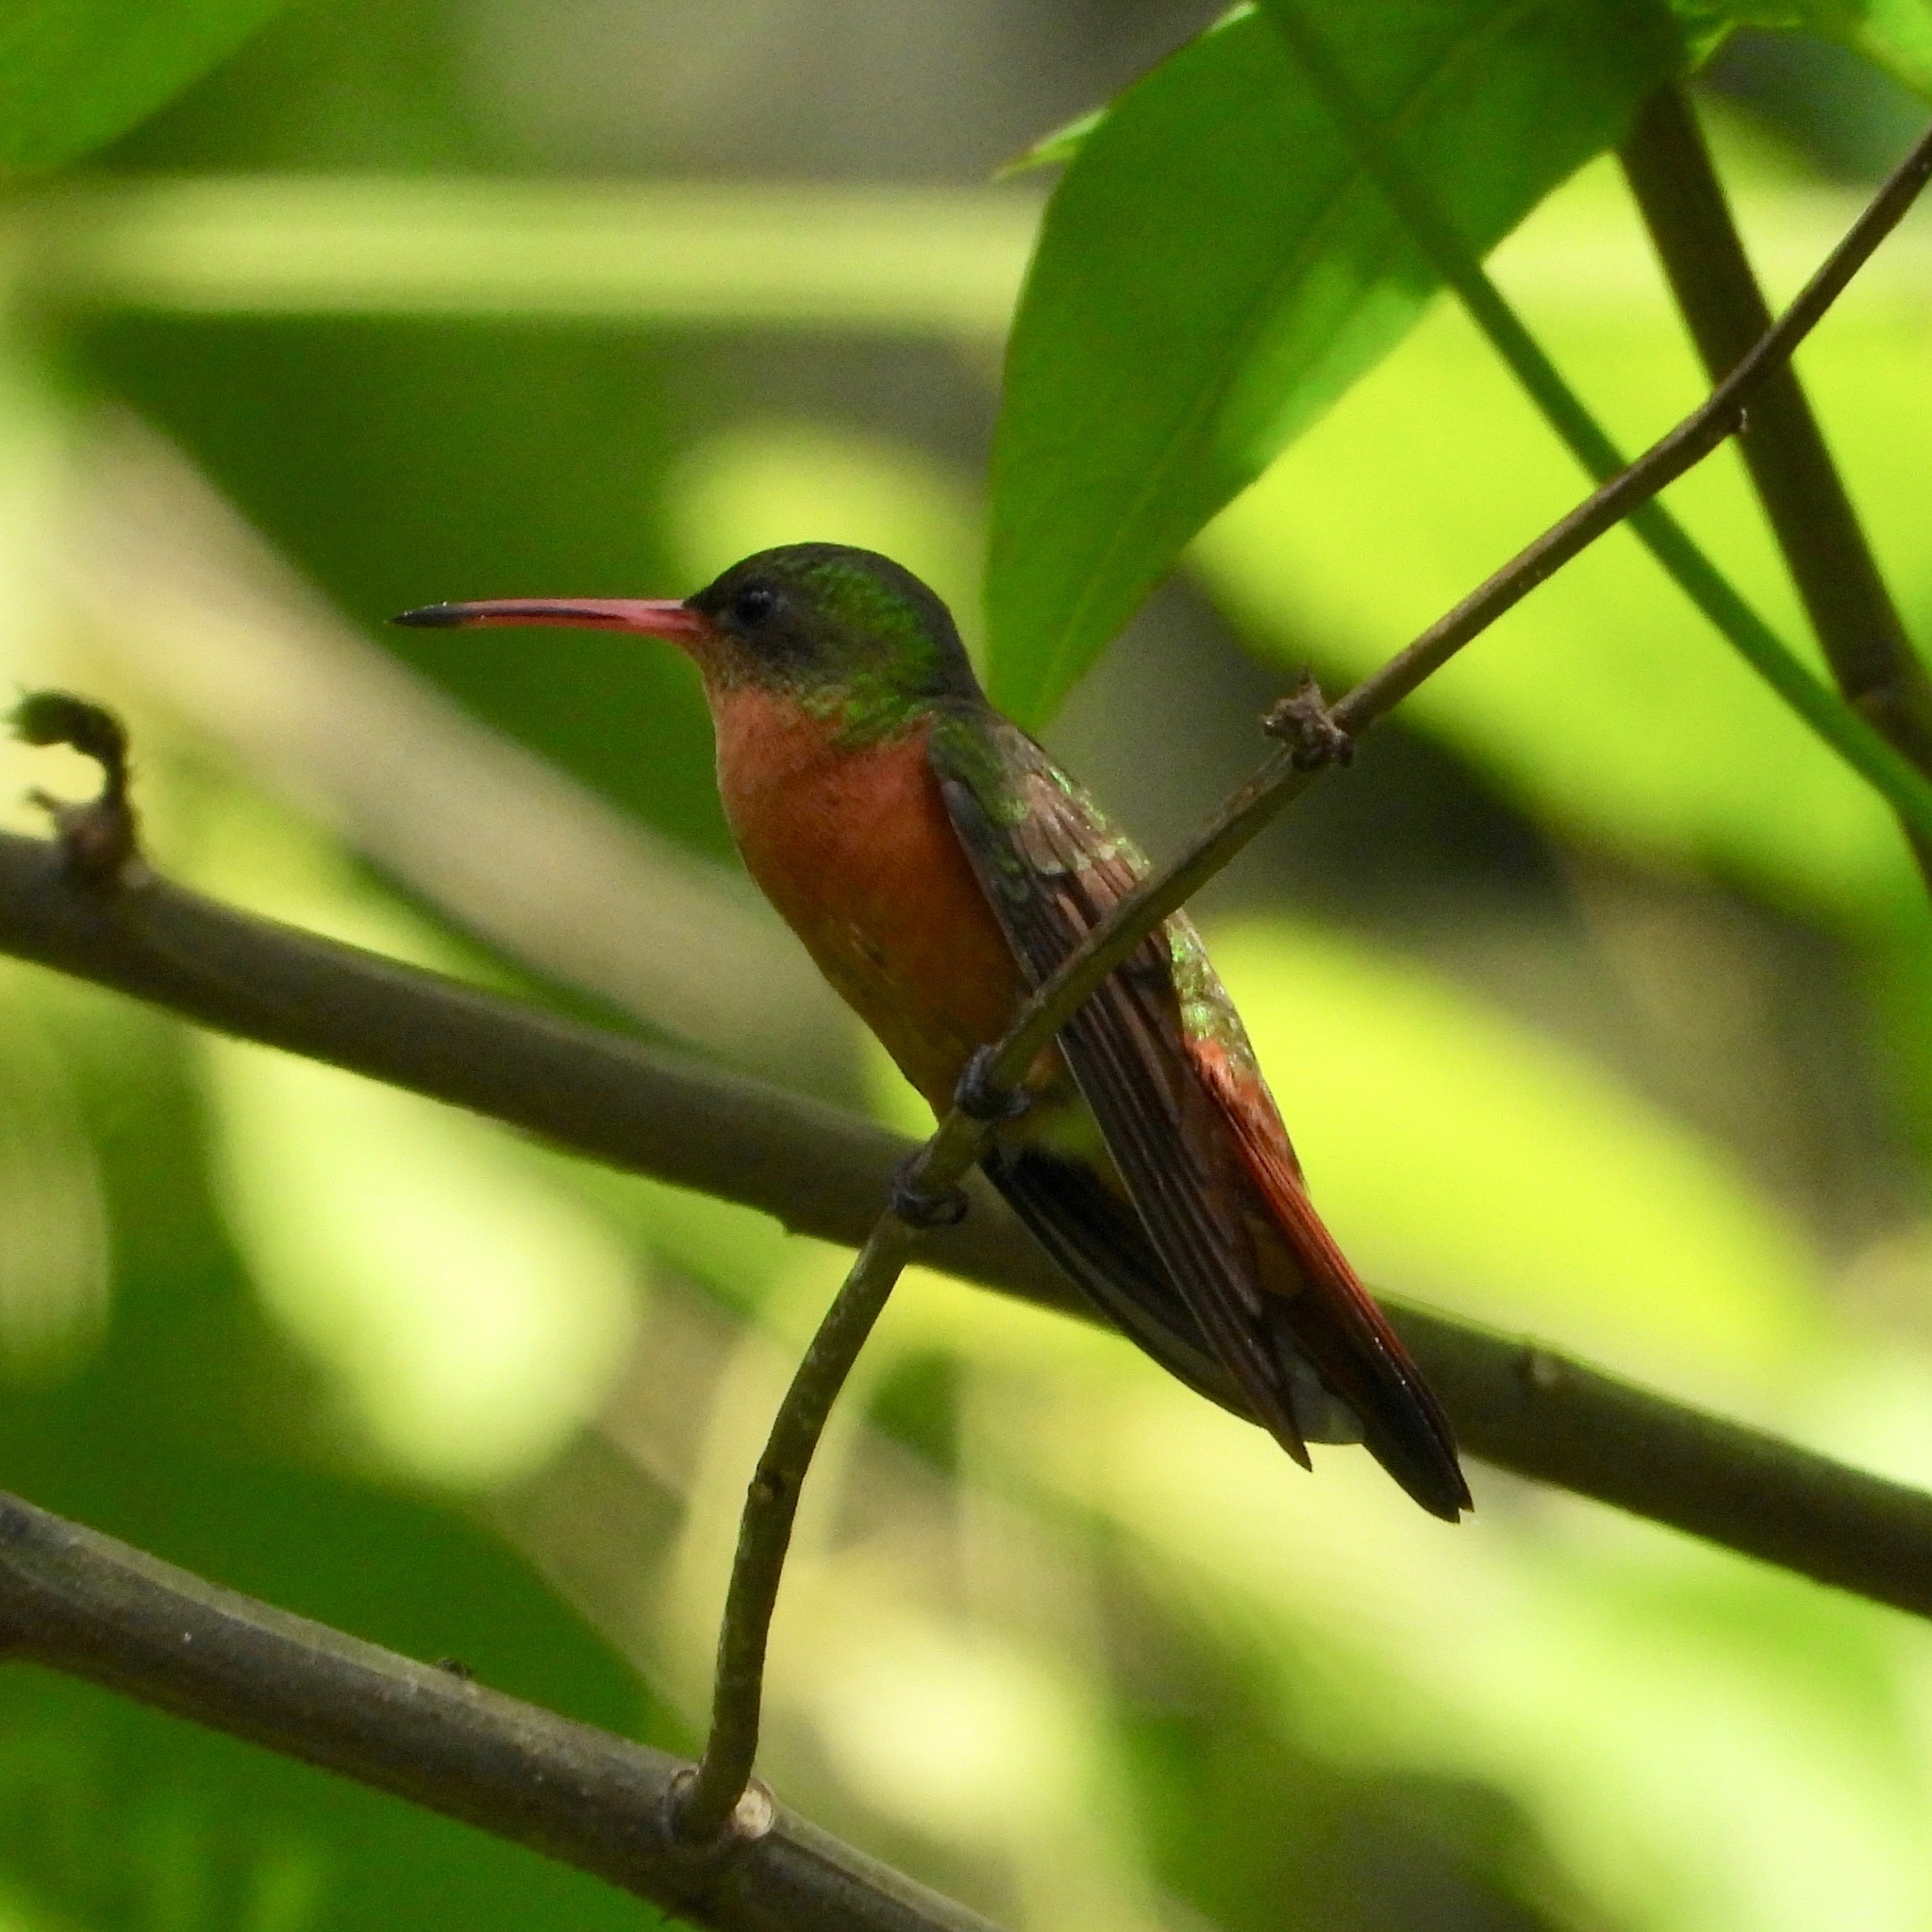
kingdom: Animalia
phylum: Chordata
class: Aves
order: Apodiformes
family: Trochilidae
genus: Amazilia
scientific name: Amazilia rutila
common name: Cinnamon hummingbird
